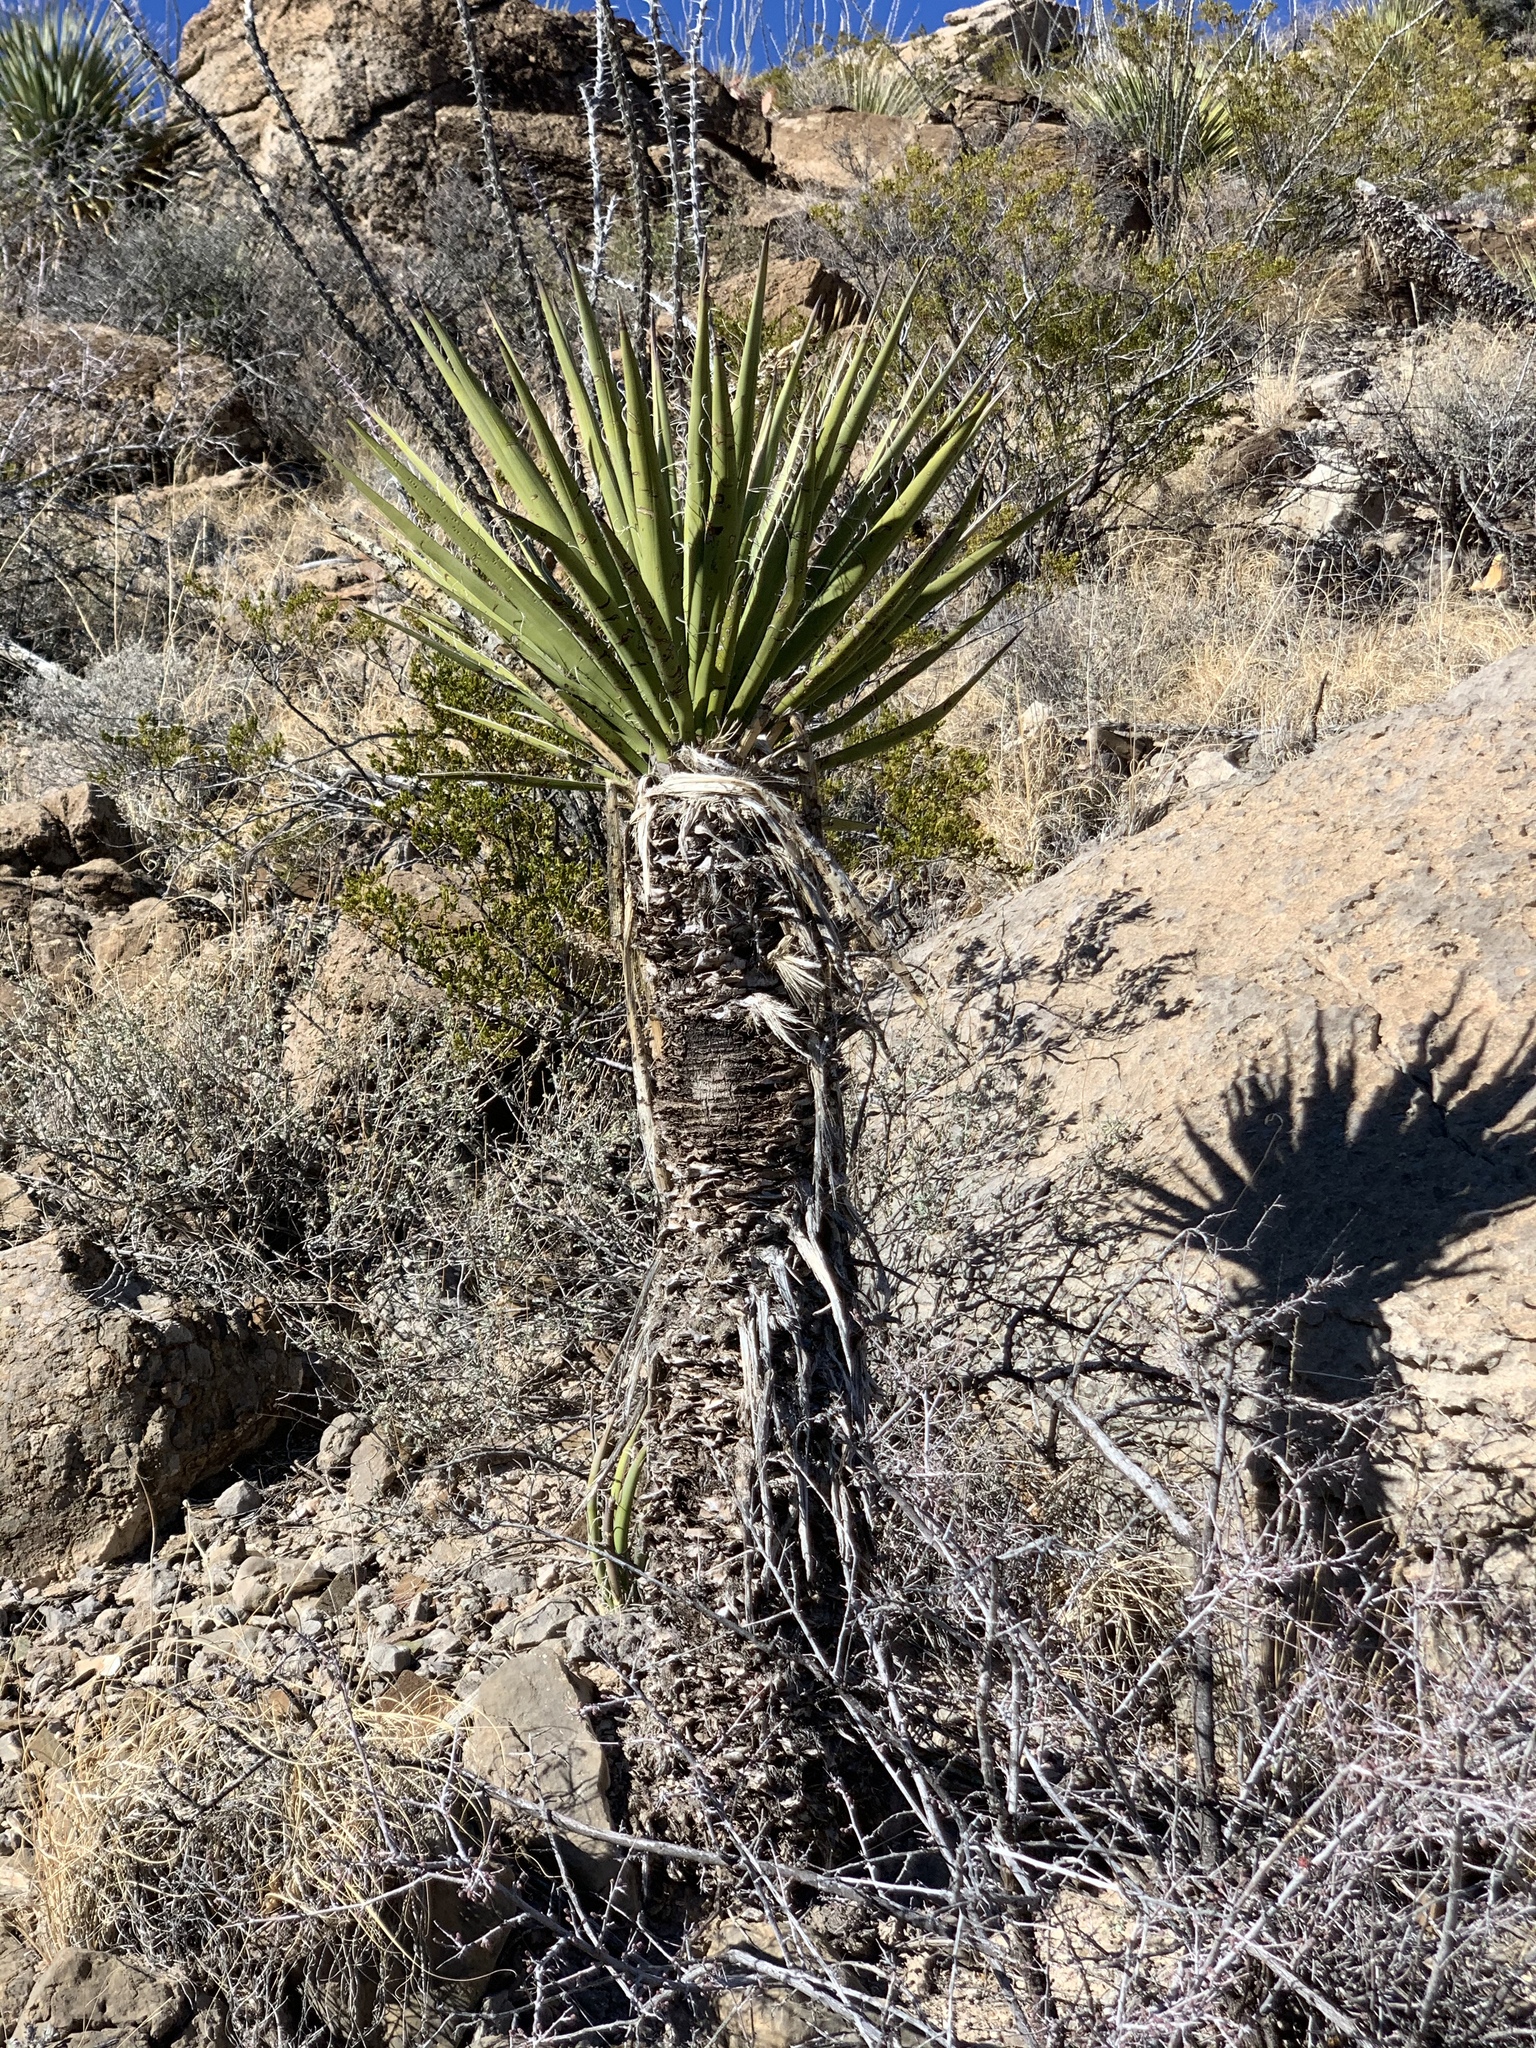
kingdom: Plantae
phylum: Tracheophyta
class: Liliopsida
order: Asparagales
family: Asparagaceae
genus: Yucca
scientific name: Yucca treculiana
